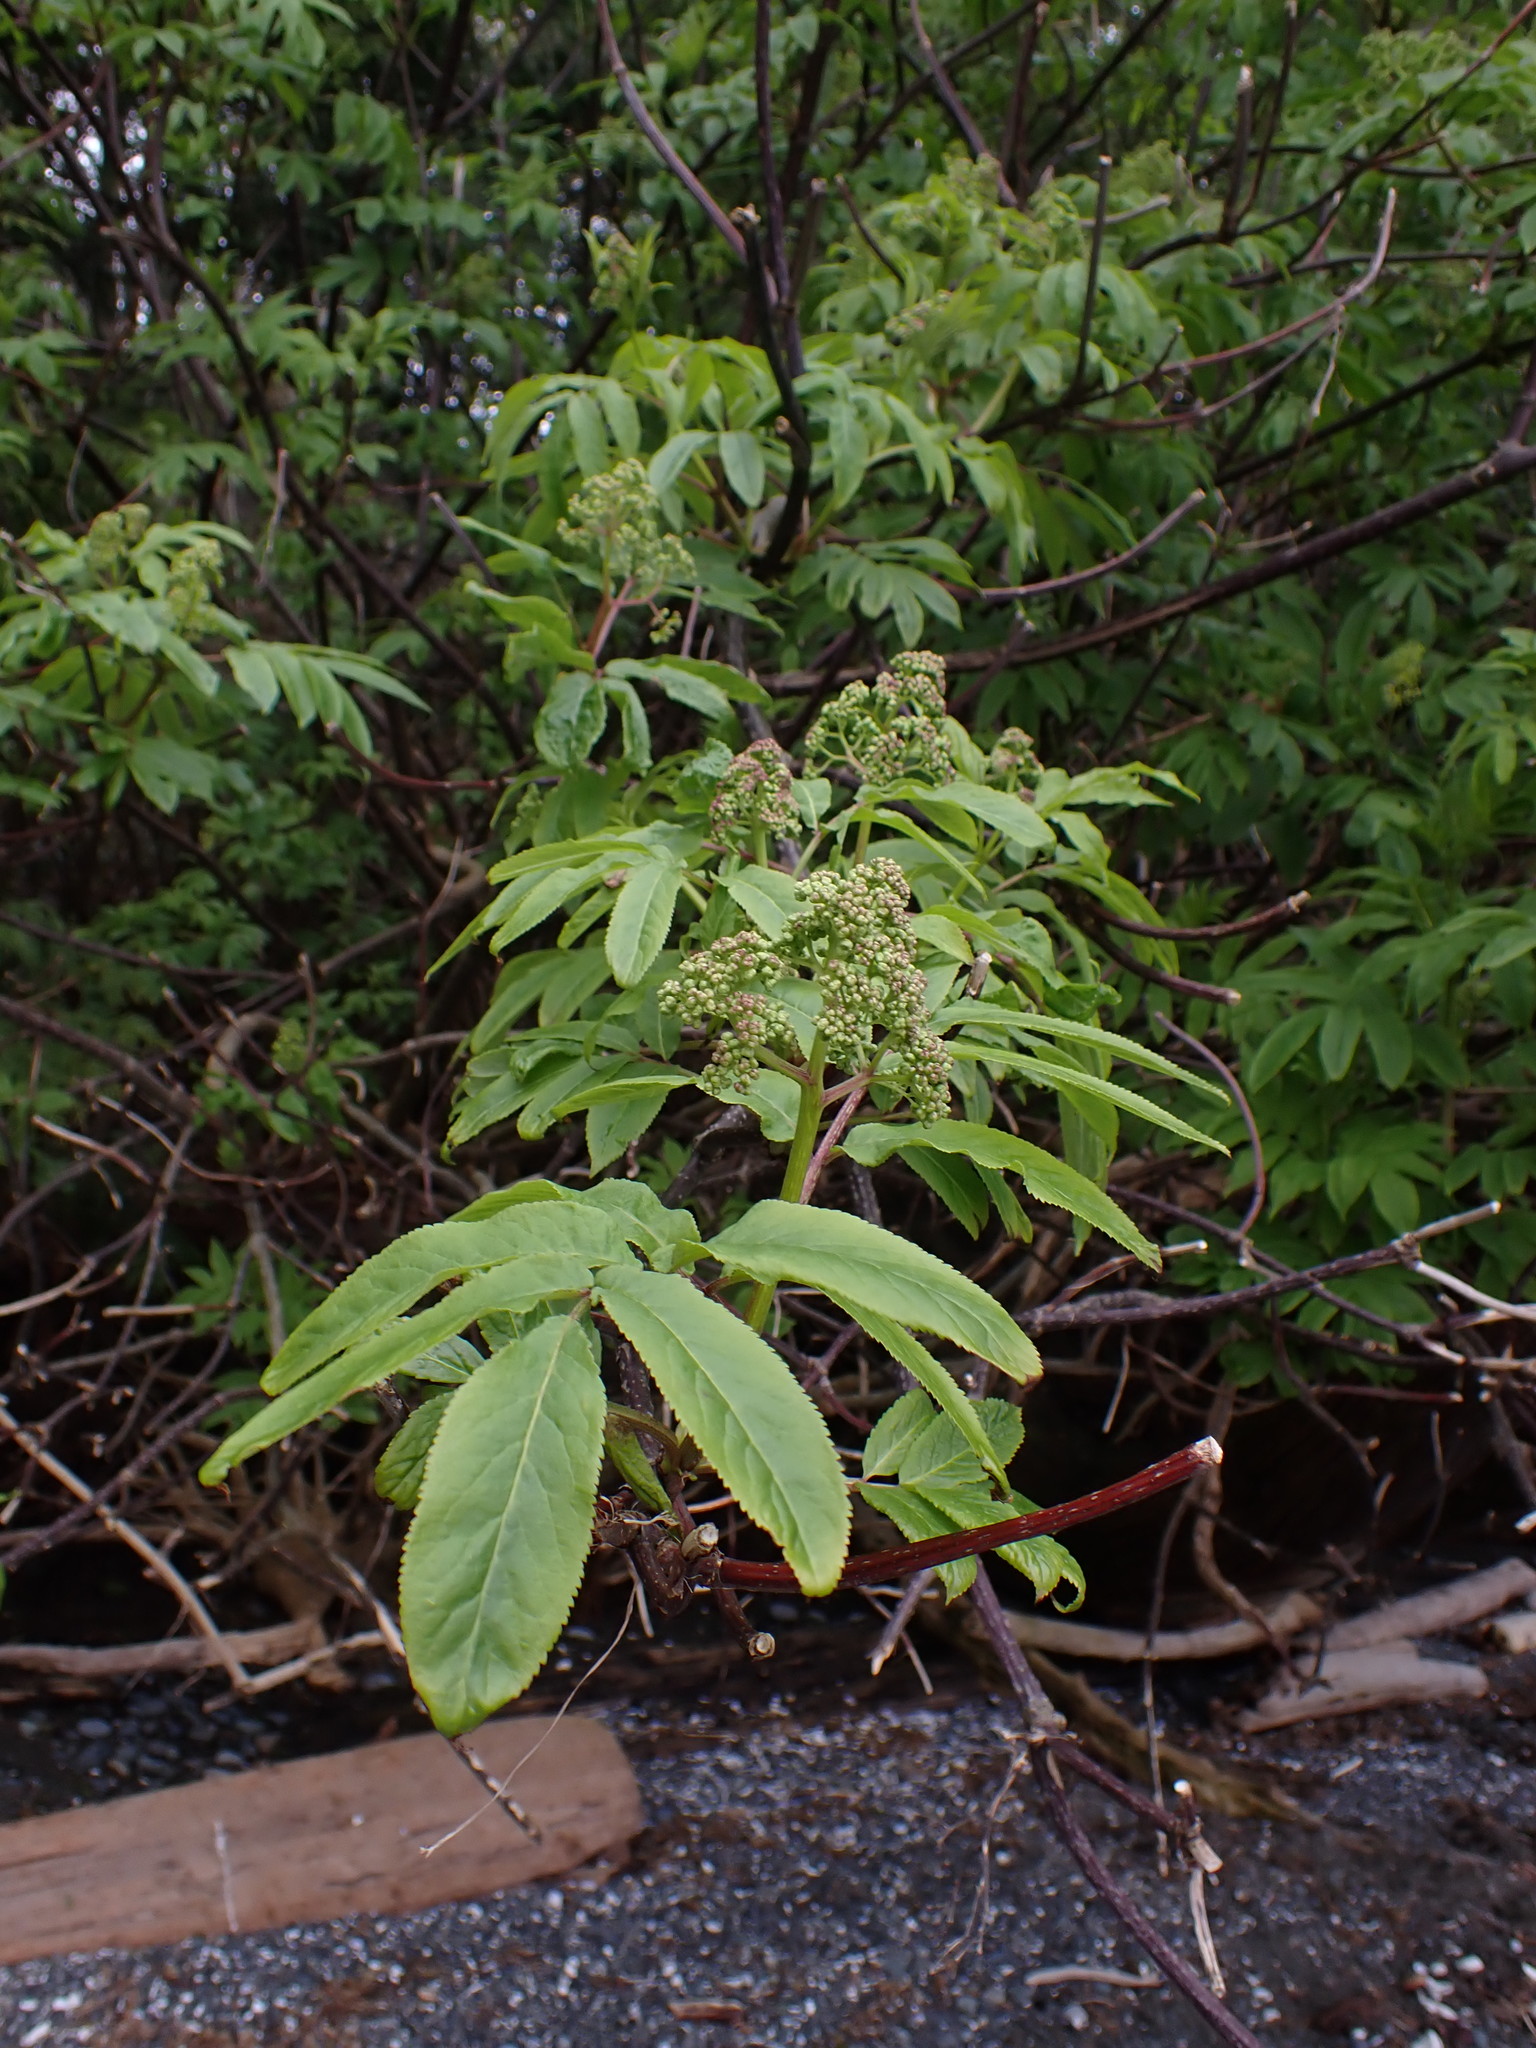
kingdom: Plantae
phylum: Tracheophyta
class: Magnoliopsida
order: Dipsacales
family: Viburnaceae
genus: Sambucus
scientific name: Sambucus racemosa
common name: Red-berried elder
